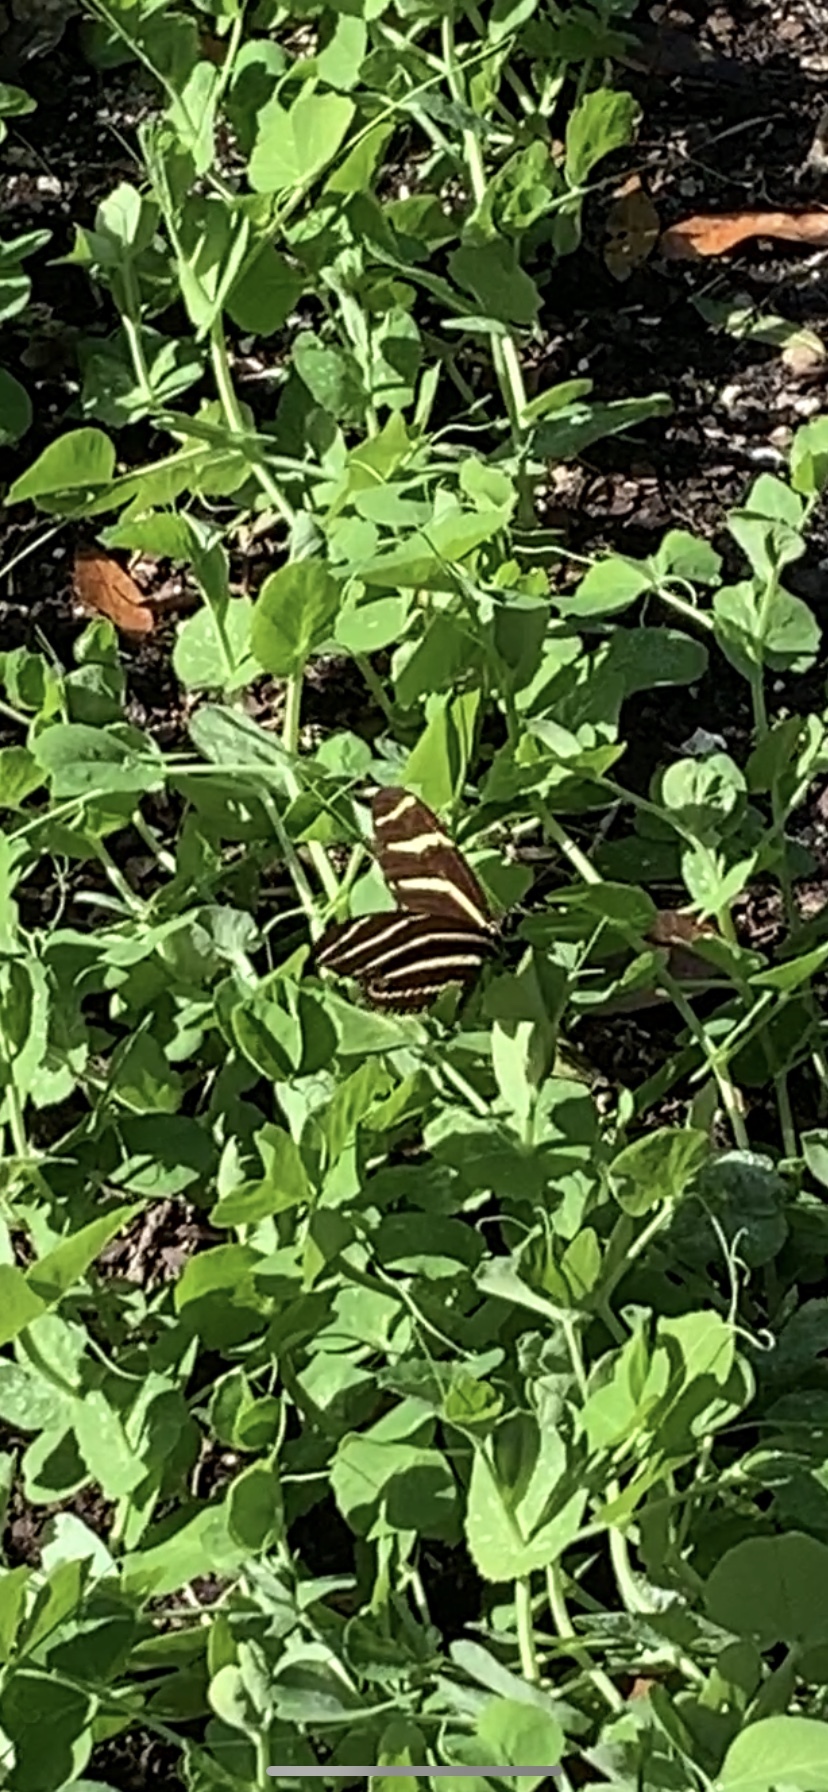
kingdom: Animalia
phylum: Arthropoda
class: Insecta
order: Lepidoptera
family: Nymphalidae
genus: Heliconius
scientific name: Heliconius charithonia
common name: Zebra long wing
